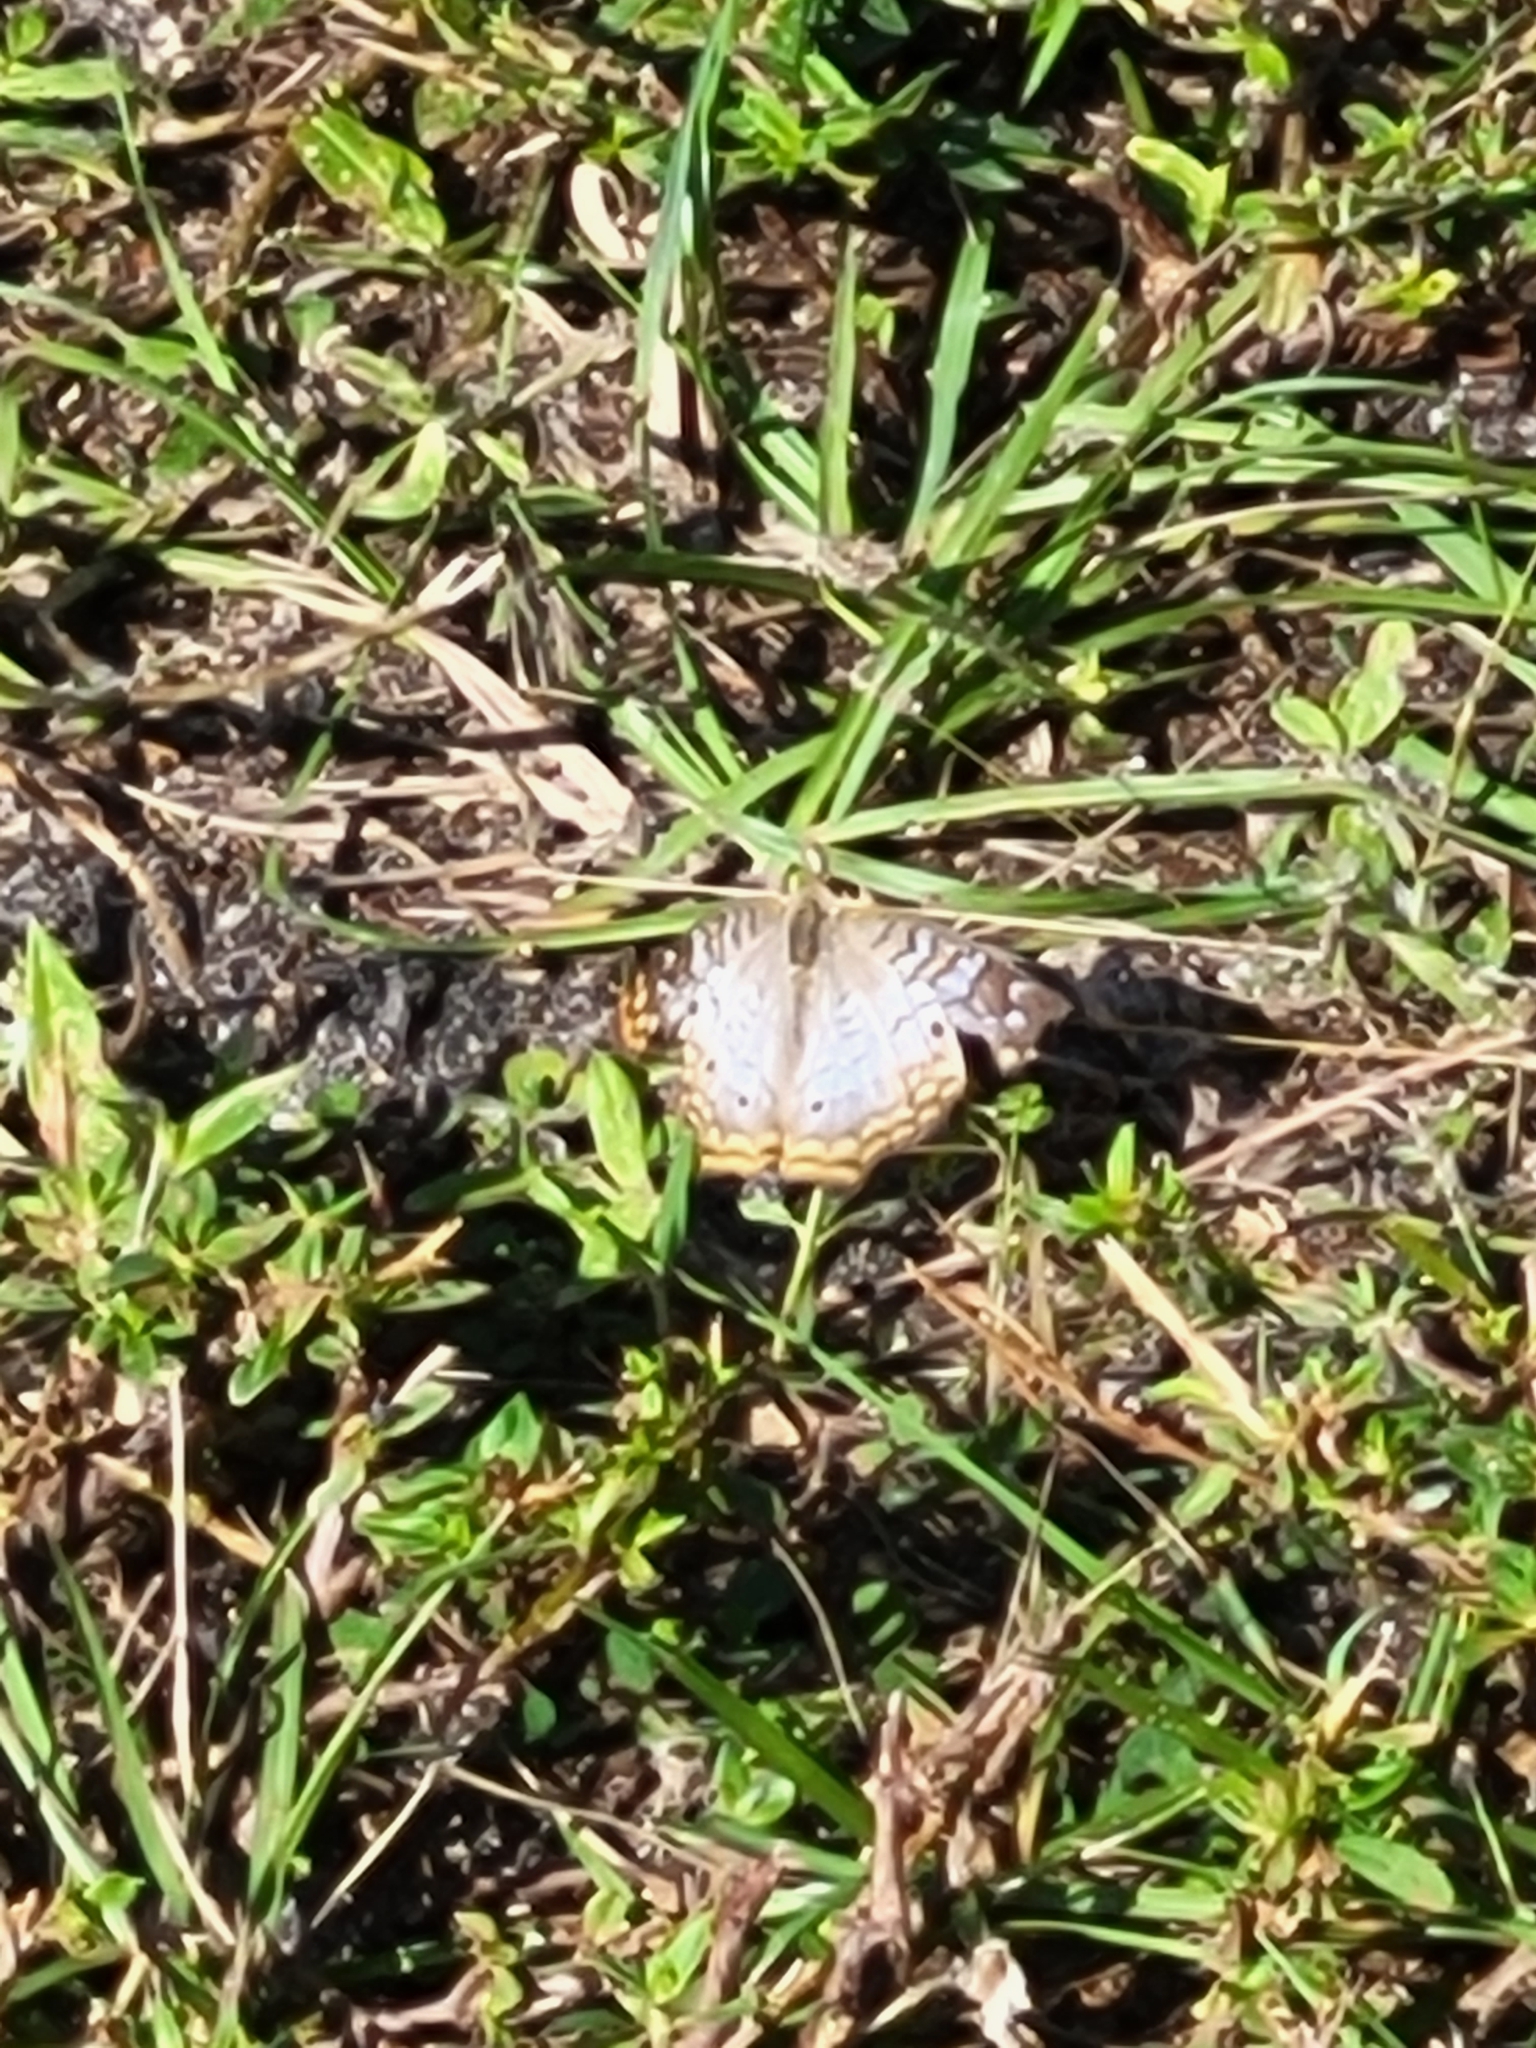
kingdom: Animalia
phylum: Arthropoda
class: Insecta
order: Lepidoptera
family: Nymphalidae
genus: Anartia
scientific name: Anartia jatrophae
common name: White peacock
